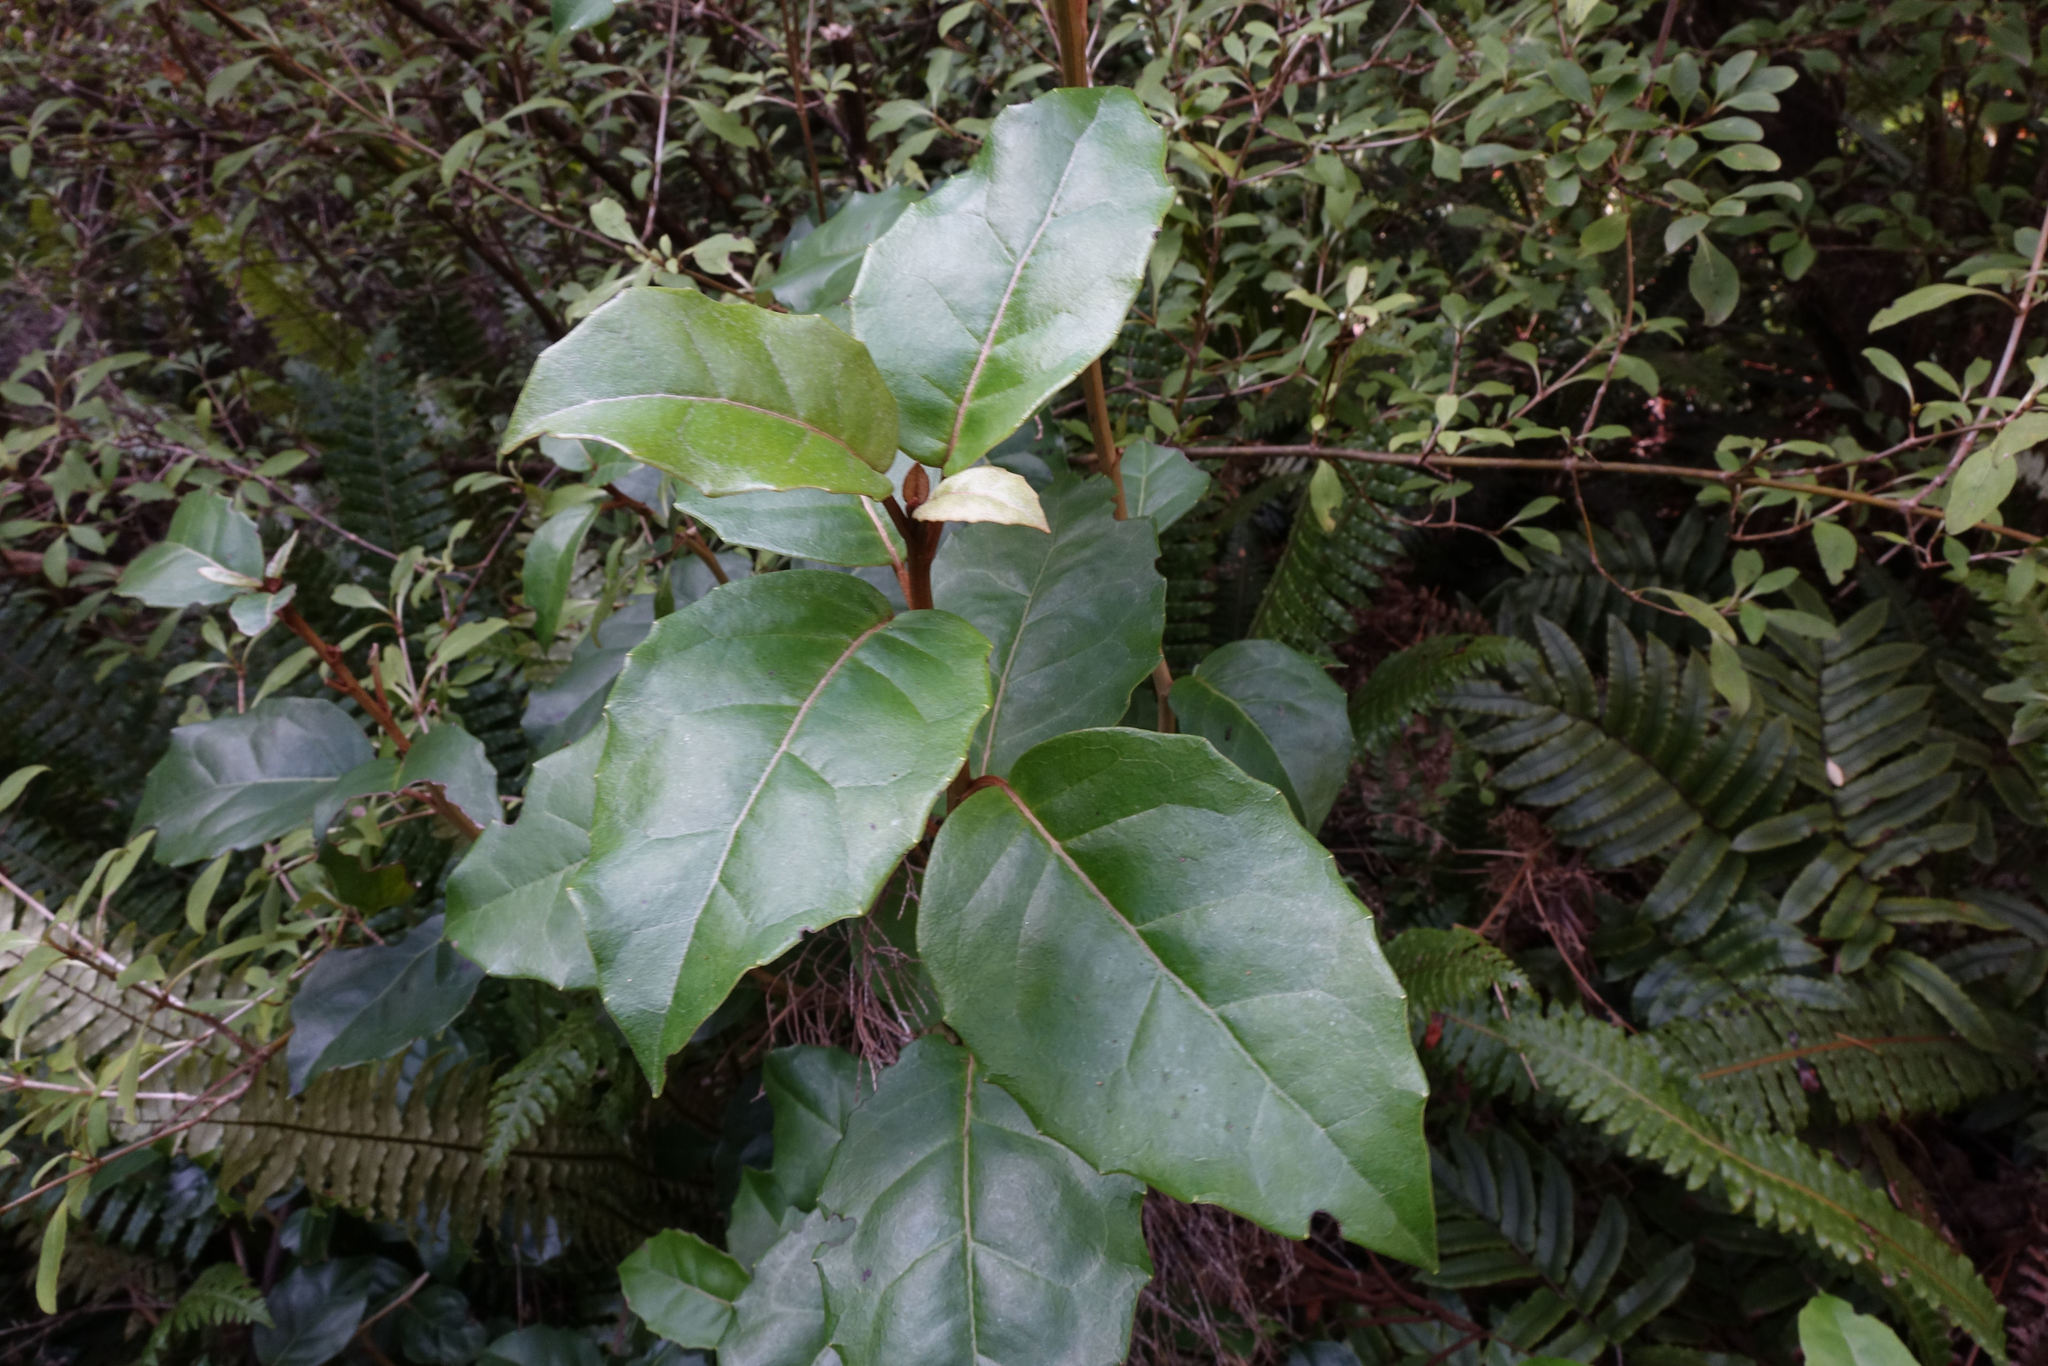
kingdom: Plantae
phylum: Tracheophyta
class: Magnoliopsida
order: Asterales
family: Asteraceae
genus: Olearia
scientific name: Olearia arborescens
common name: Glossy tree daisy
